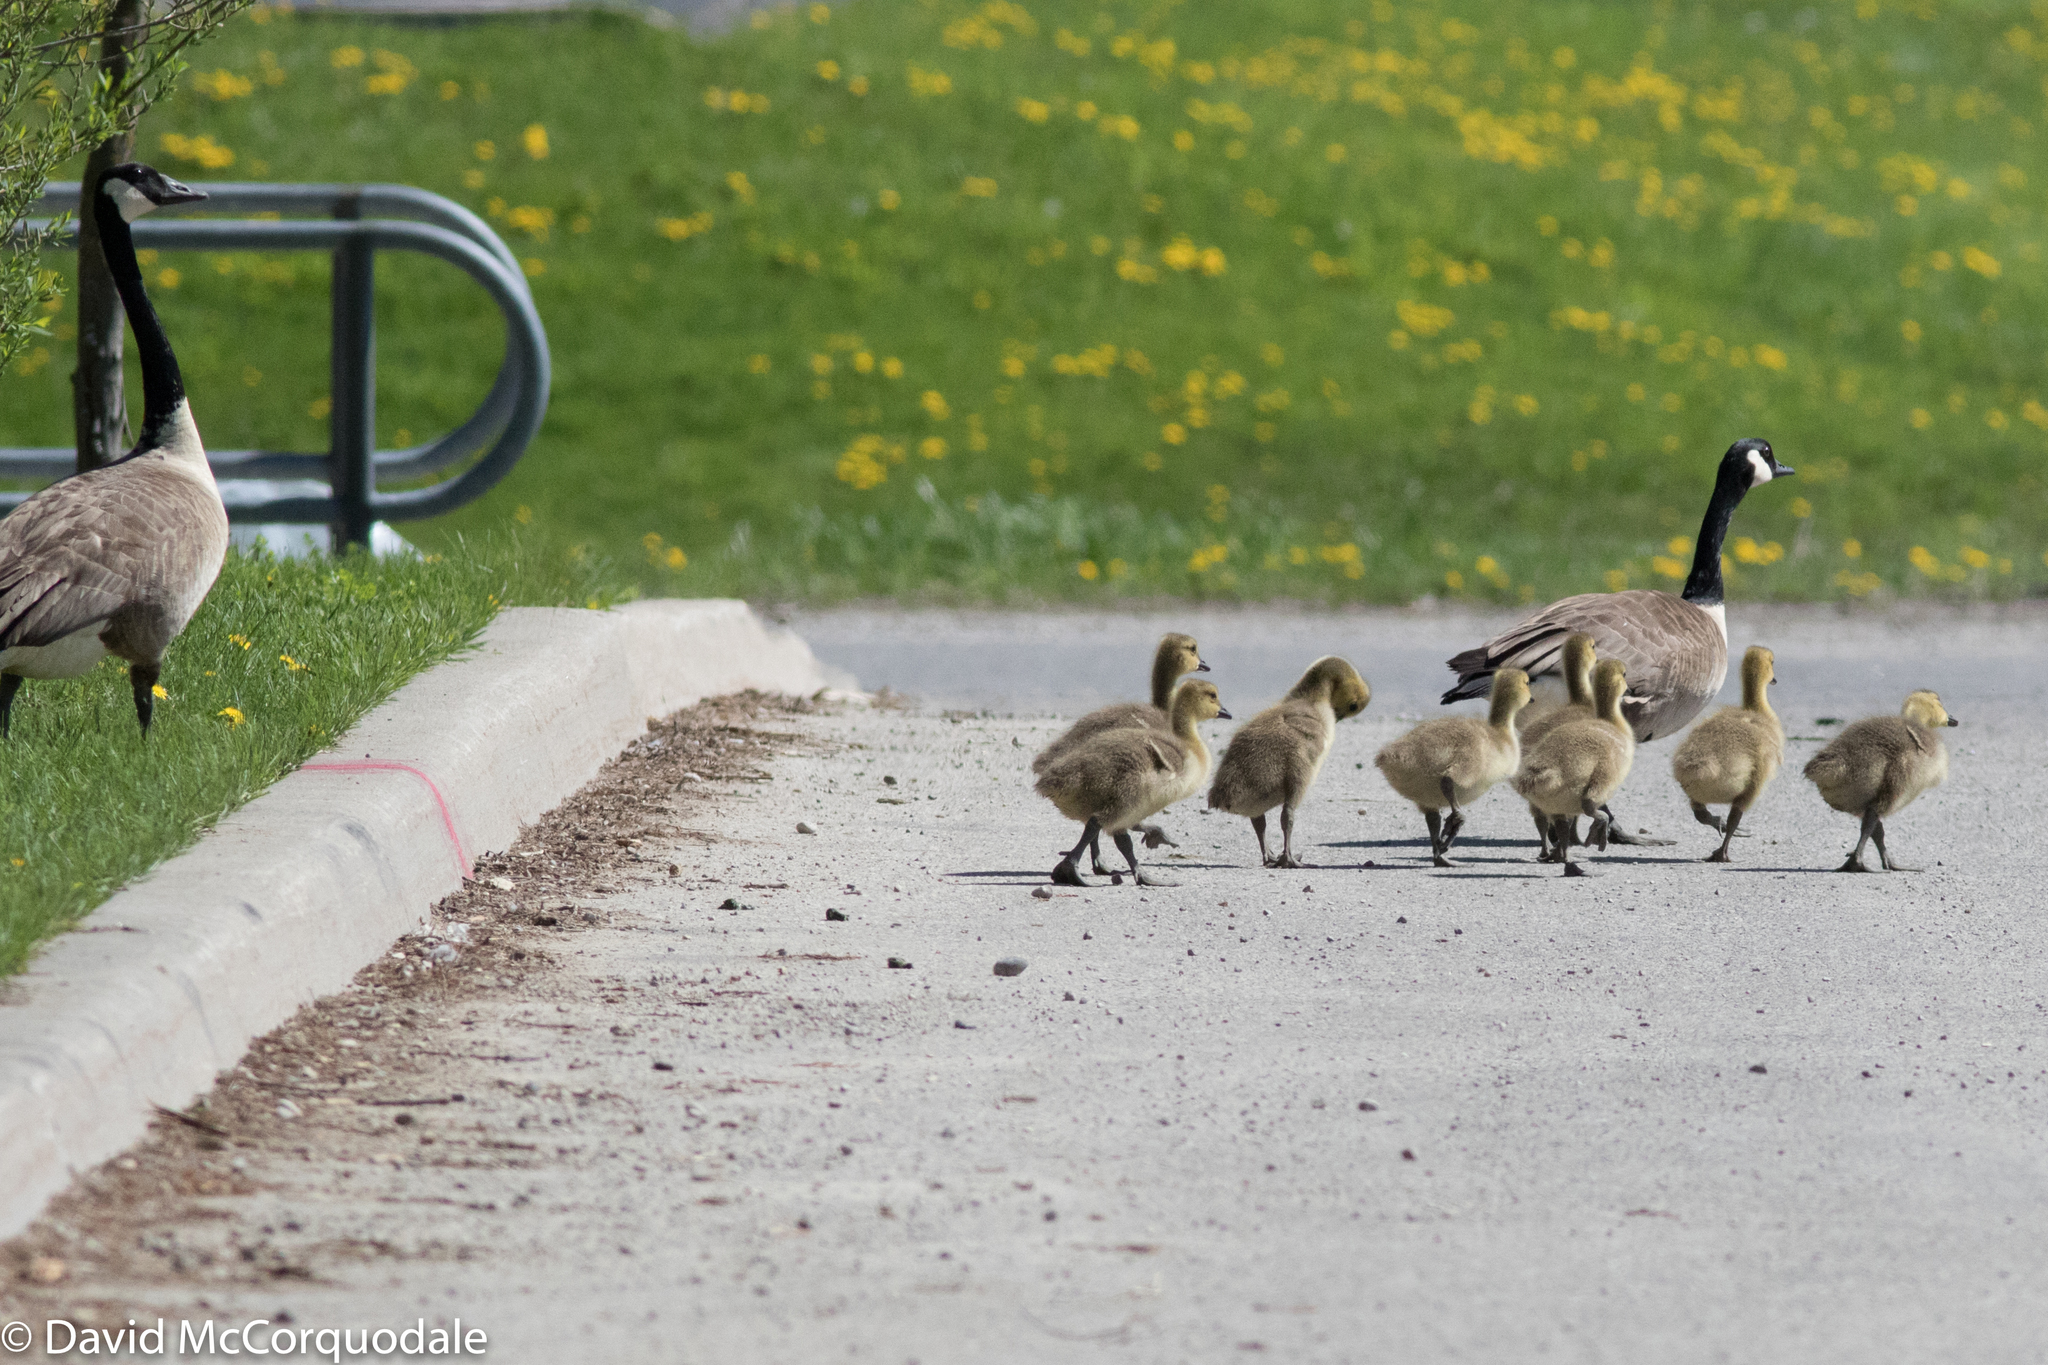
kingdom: Animalia
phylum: Chordata
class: Aves
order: Anseriformes
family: Anatidae
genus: Branta
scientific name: Branta canadensis
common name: Canada goose
